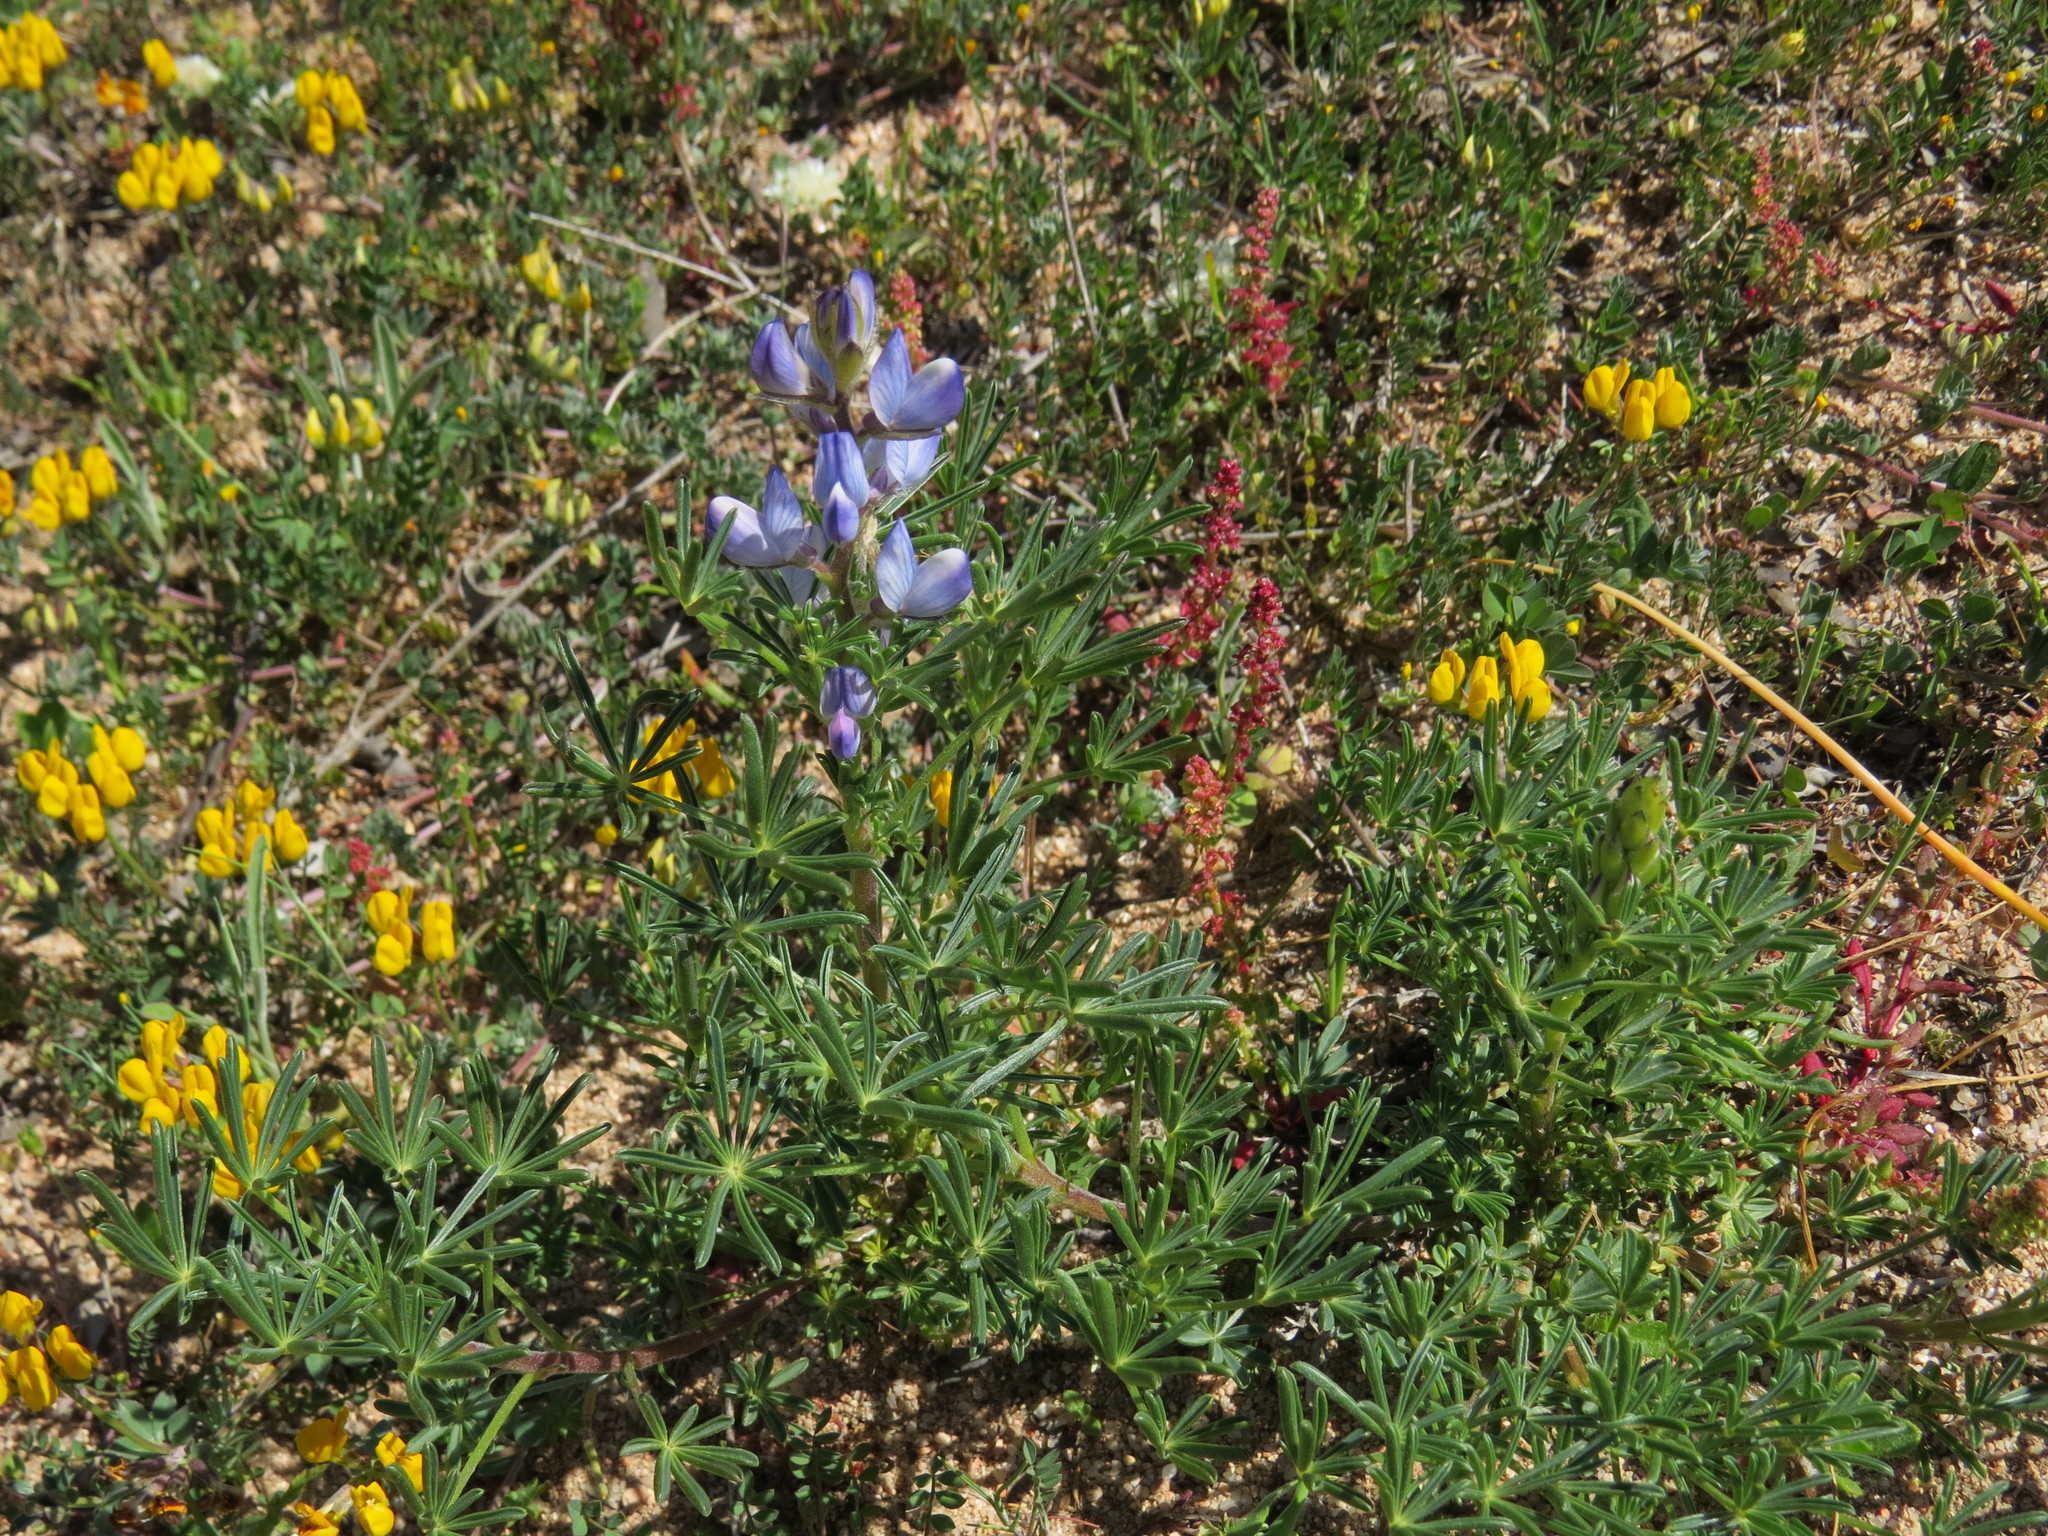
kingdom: Plantae
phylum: Tracheophyta
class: Magnoliopsida
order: Fabales
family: Fabaceae
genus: Lupinus
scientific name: Lupinus angustifolius
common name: Narrow-leaved lupin
